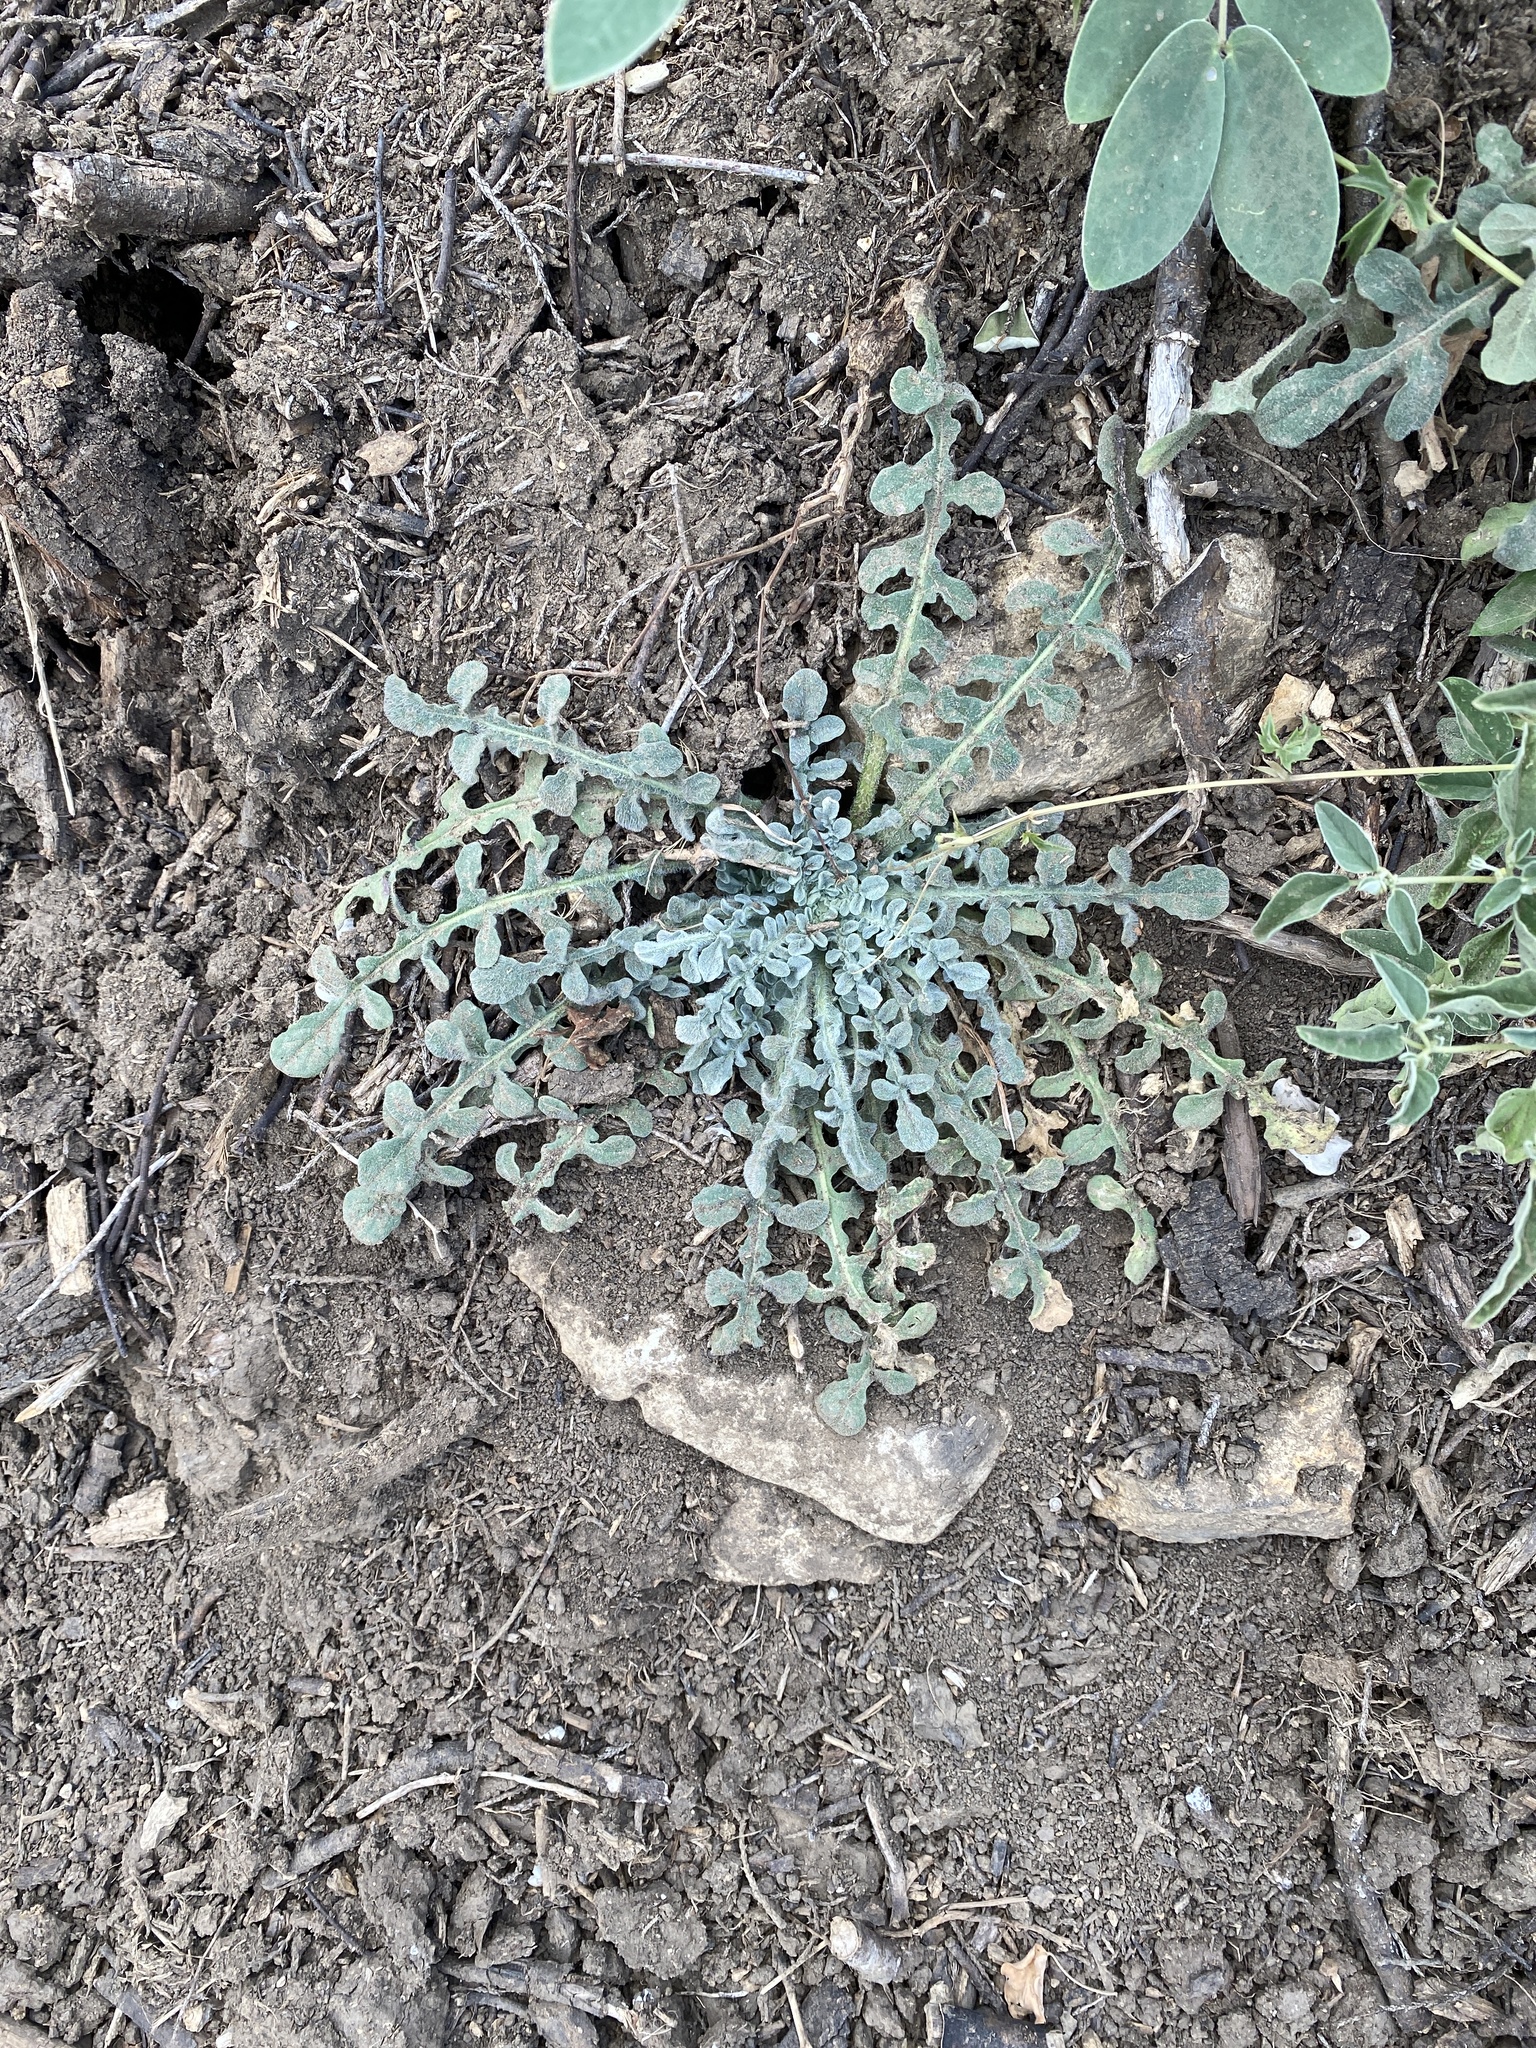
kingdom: Plantae
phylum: Tracheophyta
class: Magnoliopsida
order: Asterales
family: Asteraceae
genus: Centaurea
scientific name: Centaurea melitensis
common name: Maltese star-thistle
